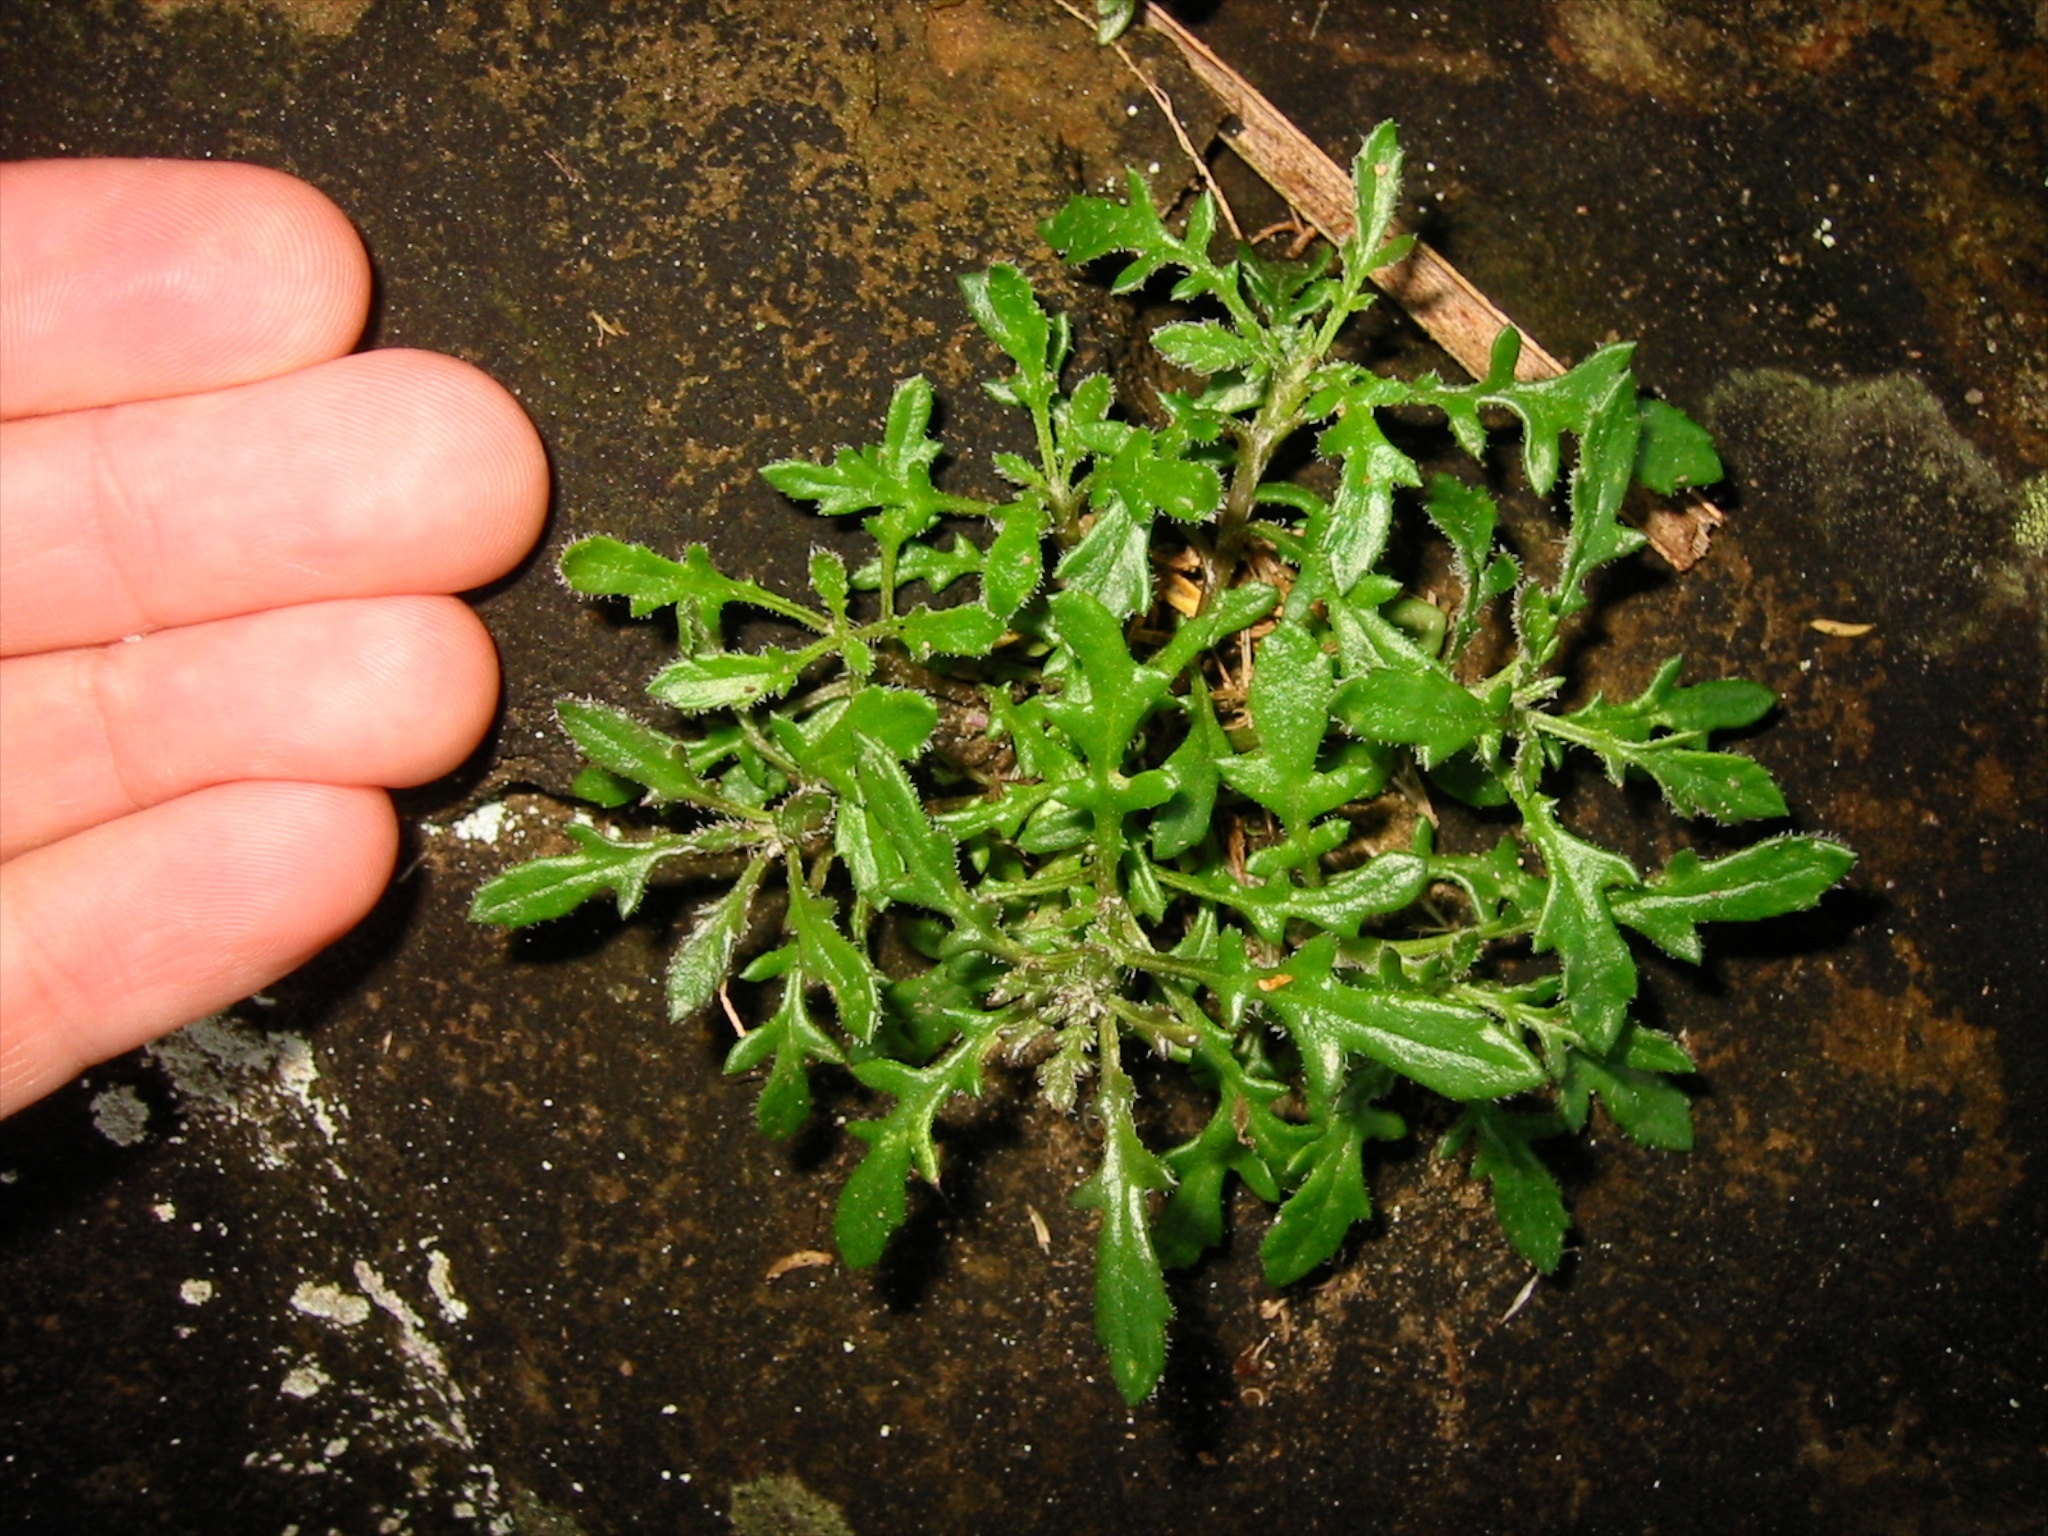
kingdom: Plantae
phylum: Tracheophyta
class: Magnoliopsida
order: Asterales
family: Asteraceae
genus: Senecio
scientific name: Senecio lautus
